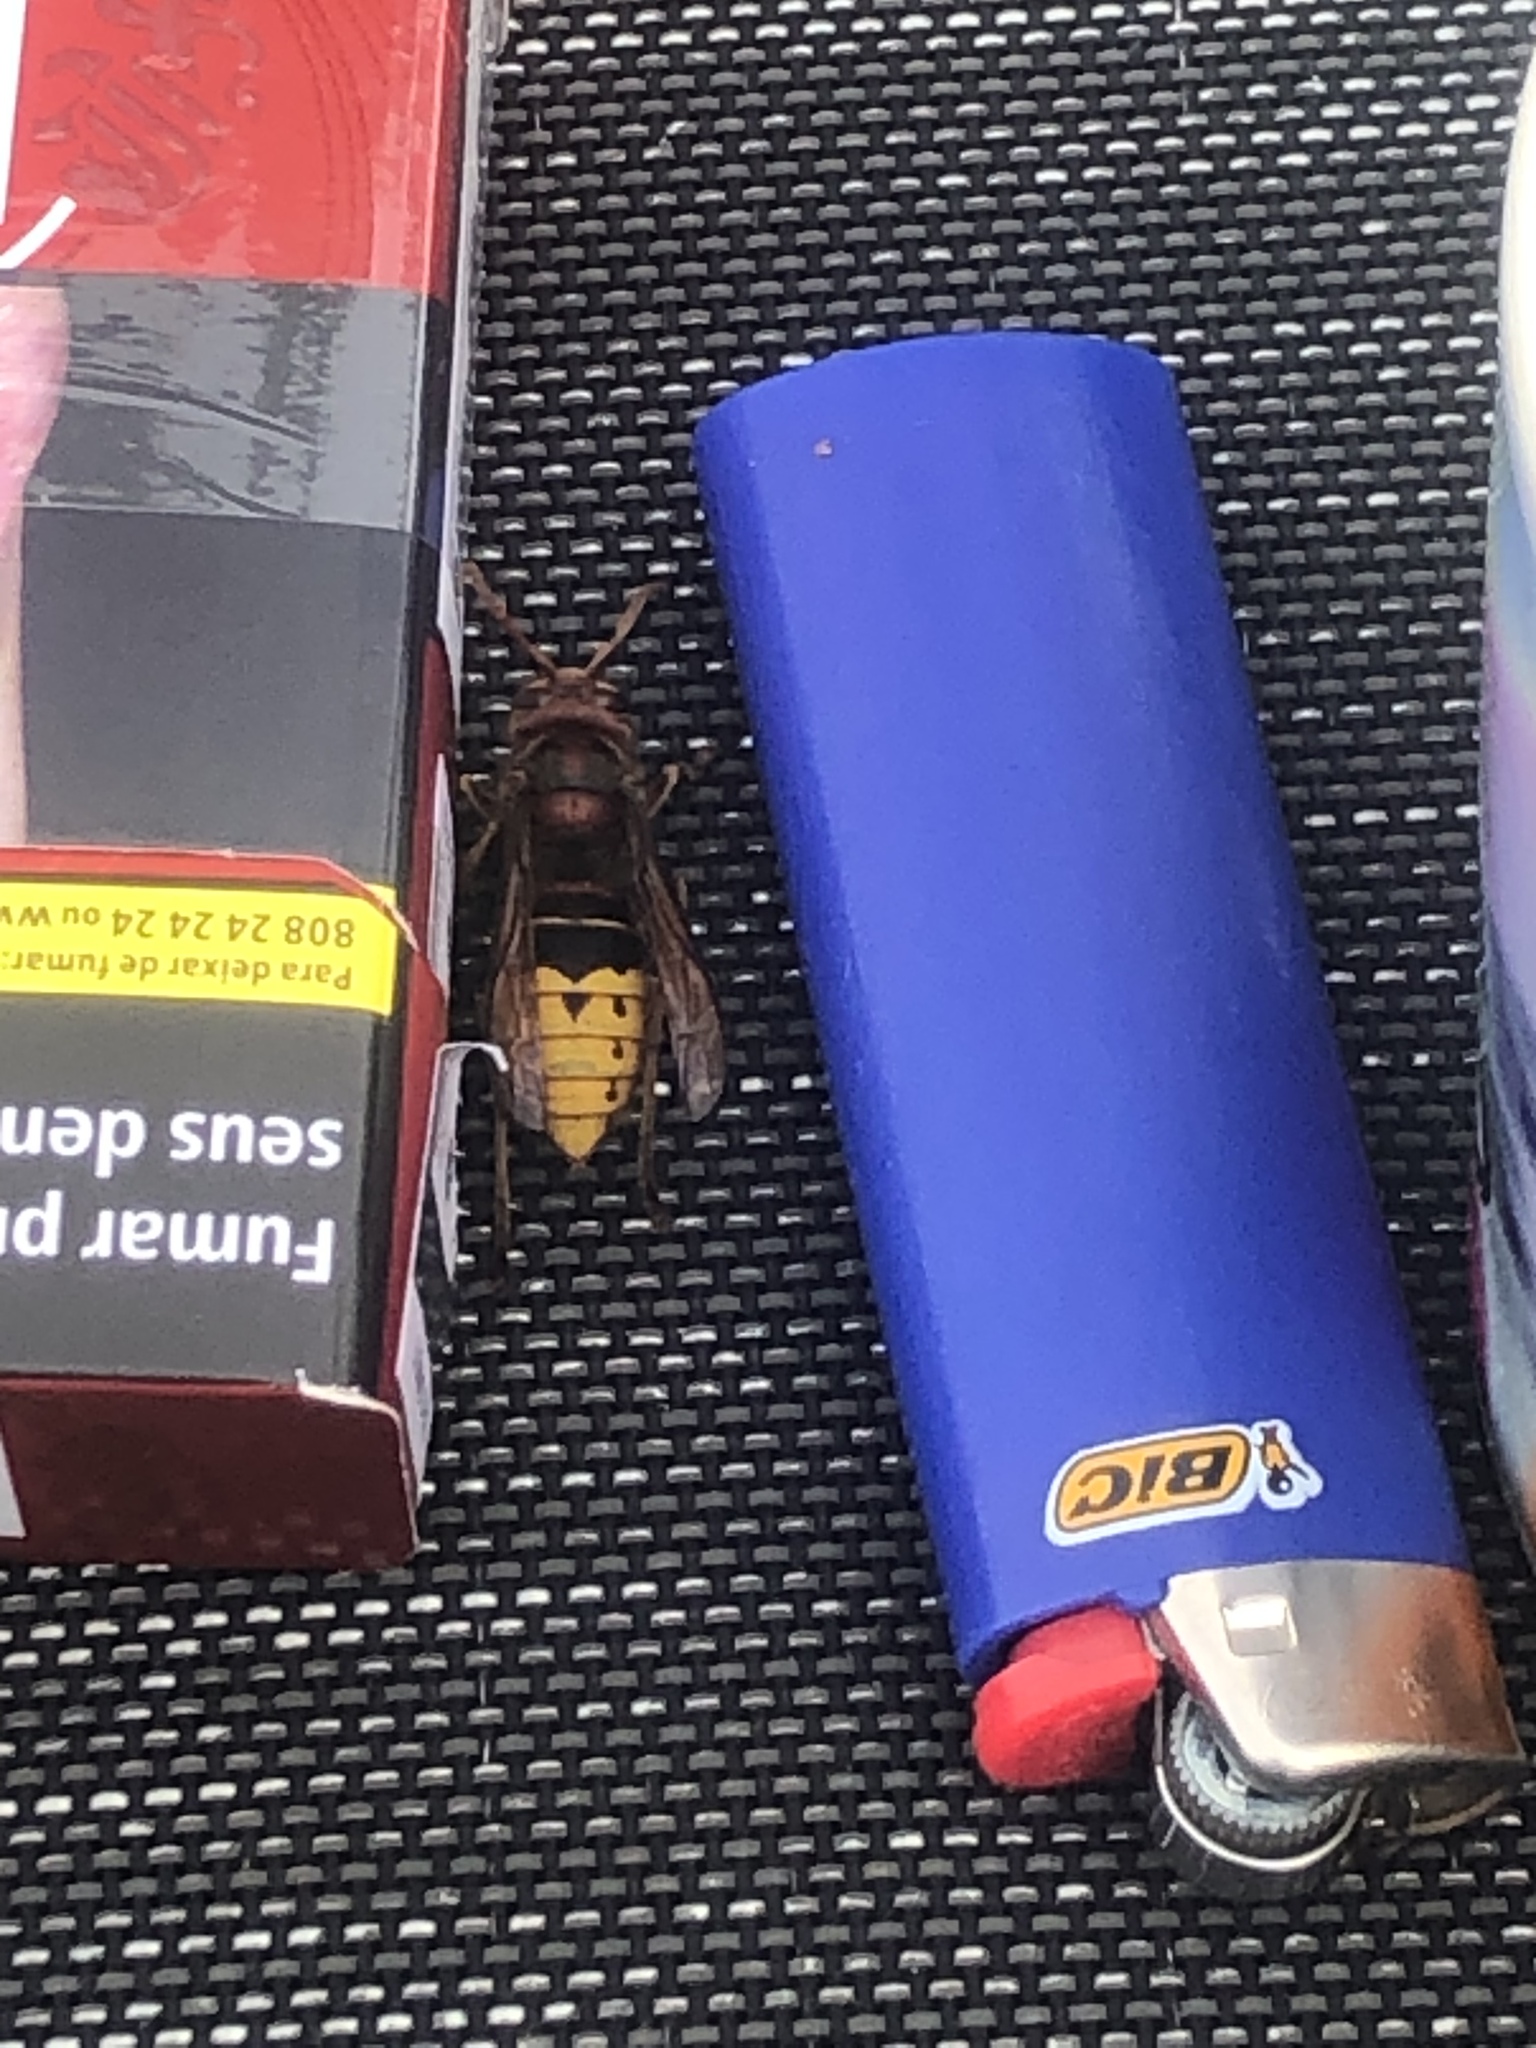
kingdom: Animalia
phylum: Arthropoda
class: Insecta
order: Hymenoptera
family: Vespidae
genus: Vespa
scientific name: Vespa crabro
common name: Hornet
